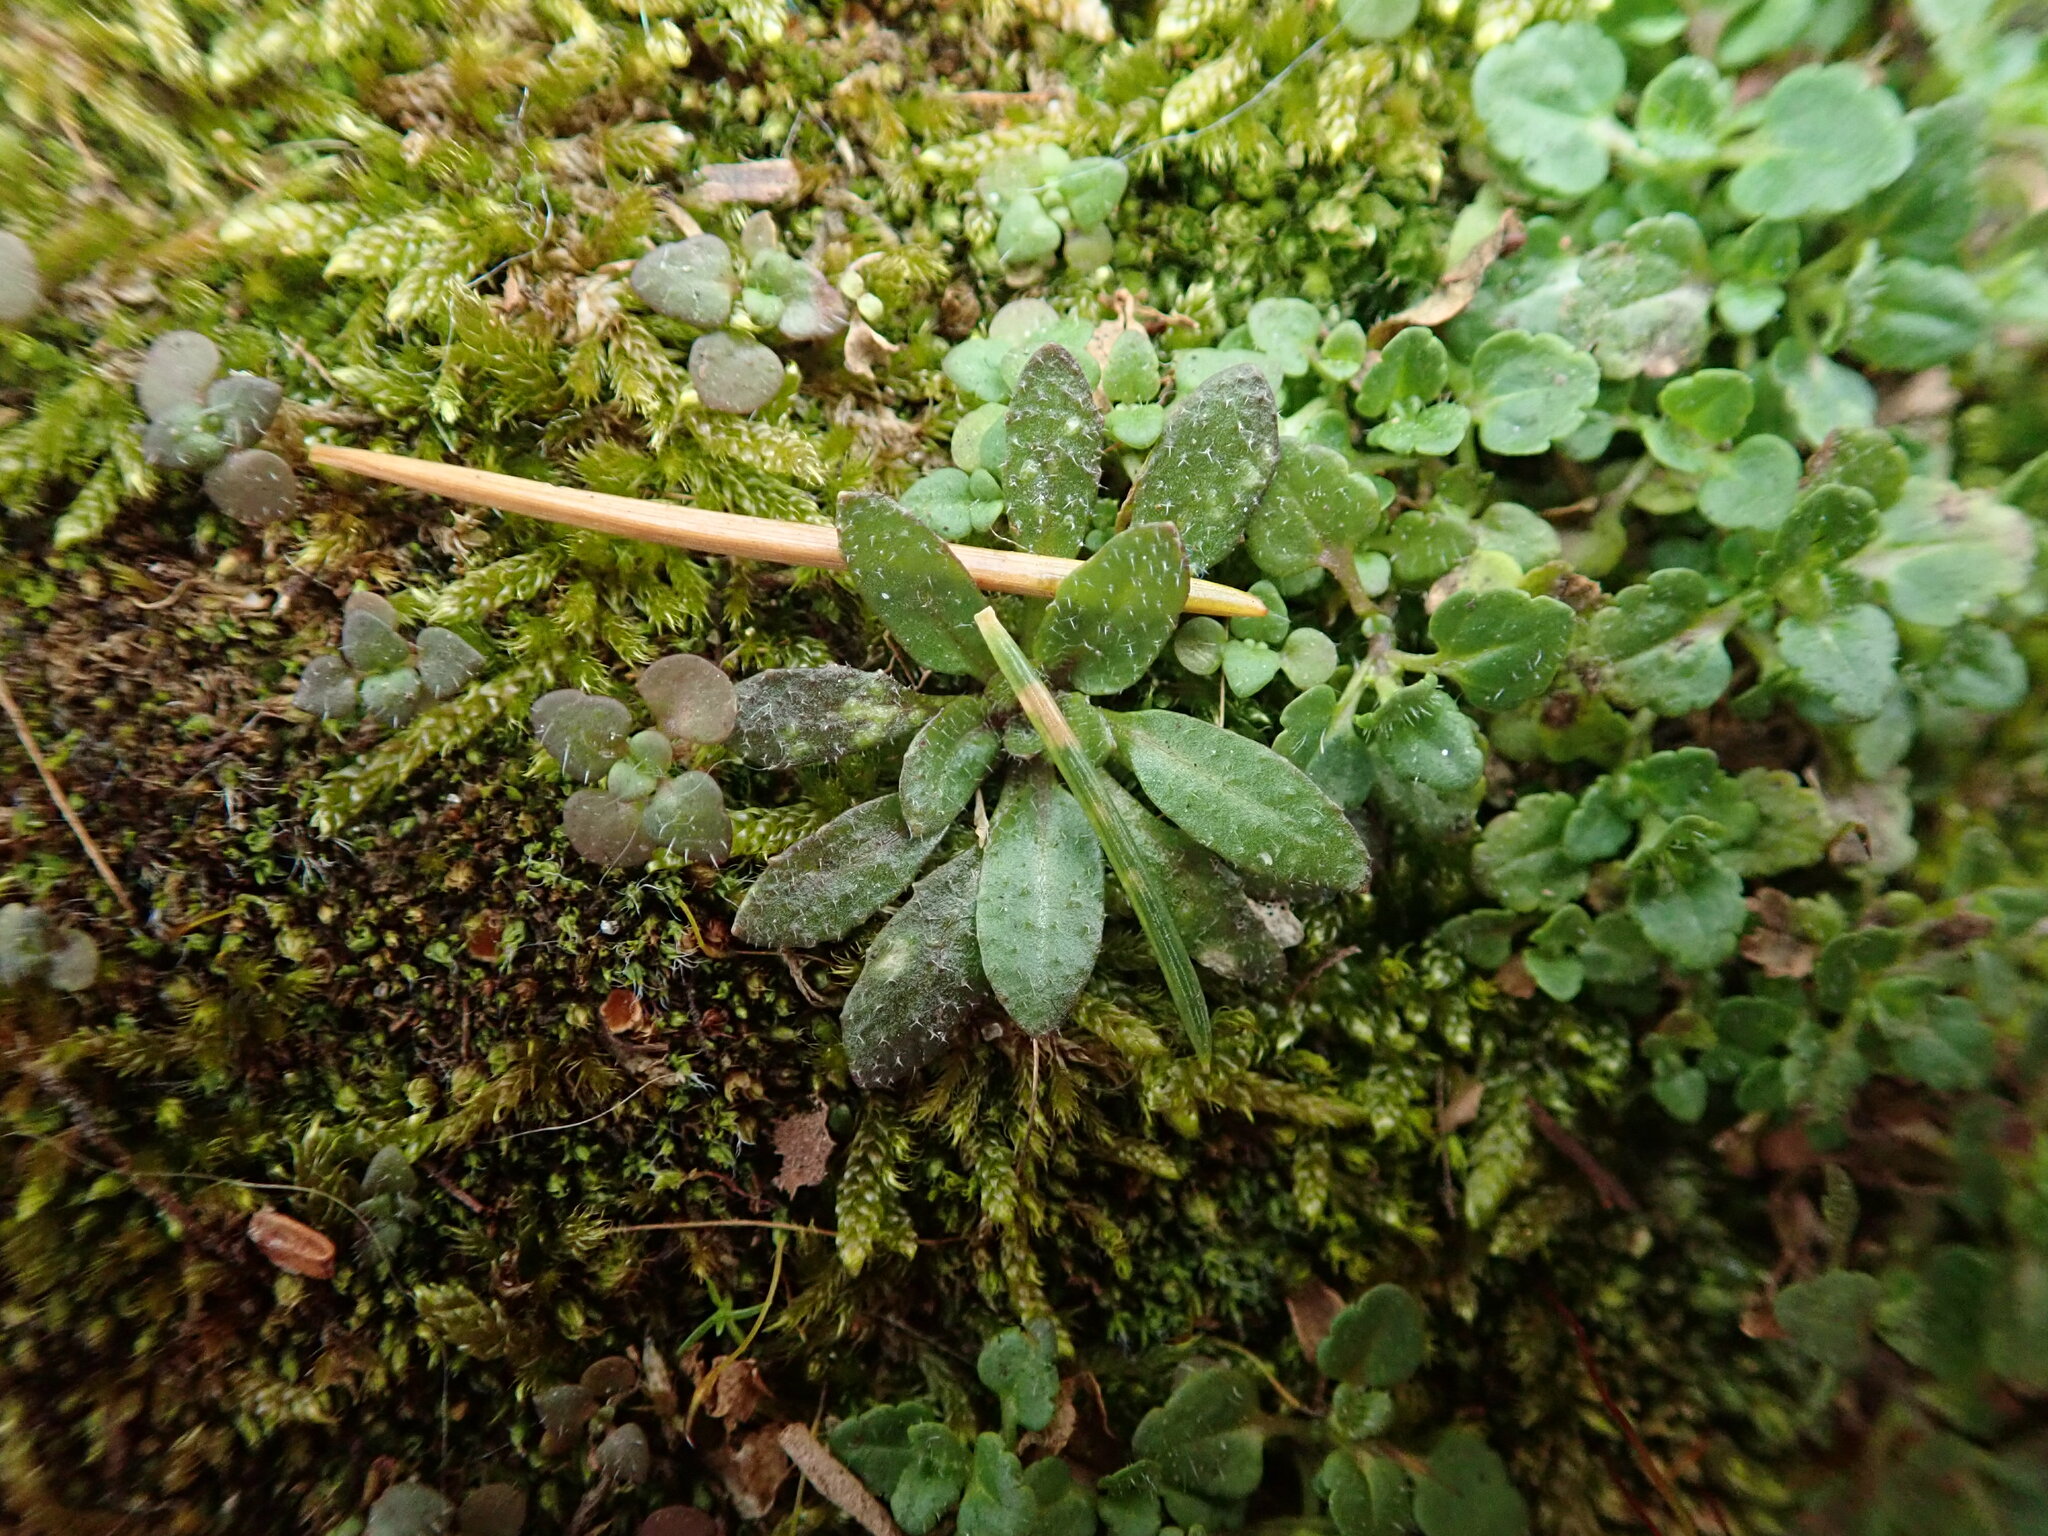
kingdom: Plantae
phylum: Tracheophyta
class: Magnoliopsida
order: Brassicales
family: Brassicaceae
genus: Draba
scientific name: Draba verna
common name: Spring draba
